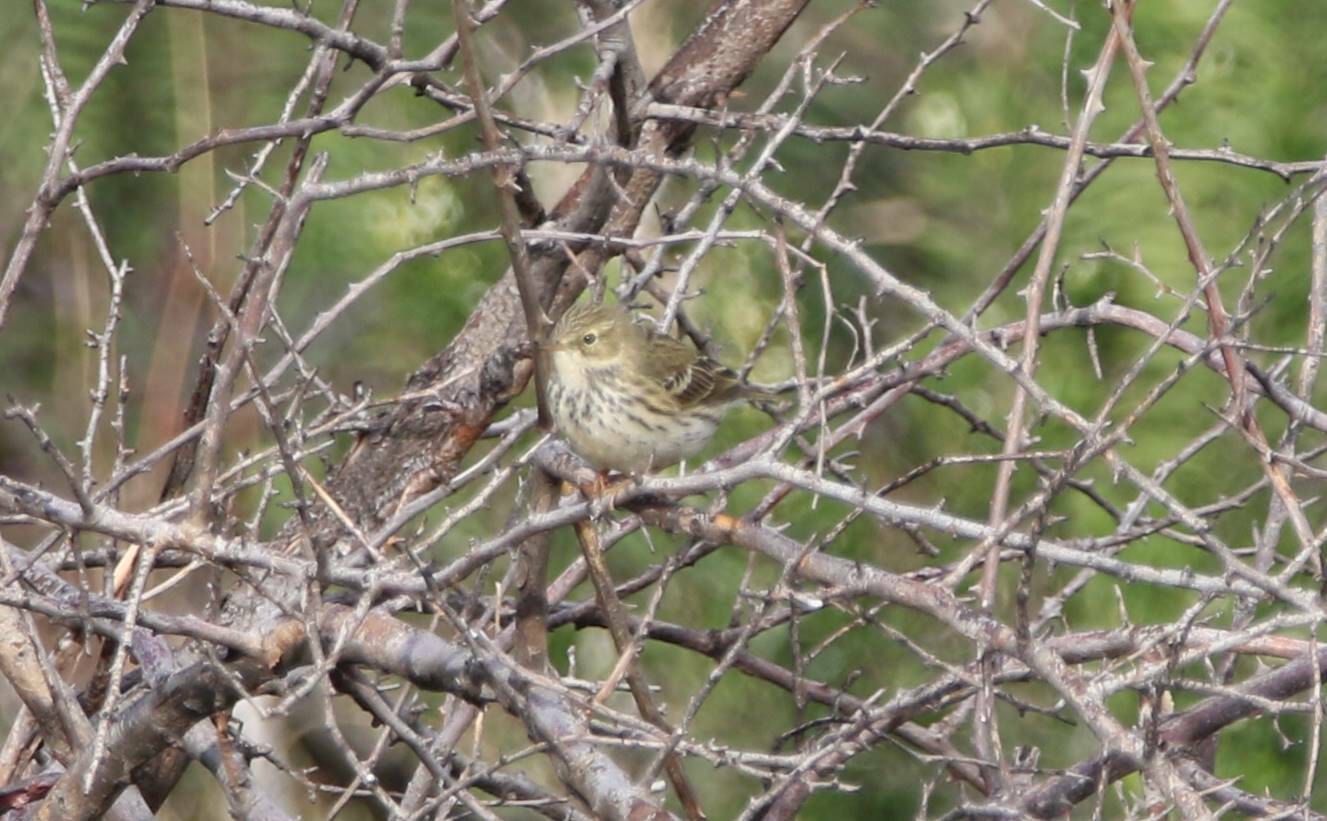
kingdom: Animalia
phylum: Chordata
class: Aves
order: Passeriformes
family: Motacillidae
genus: Anthus
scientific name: Anthus pratensis
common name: Meadow pipit
